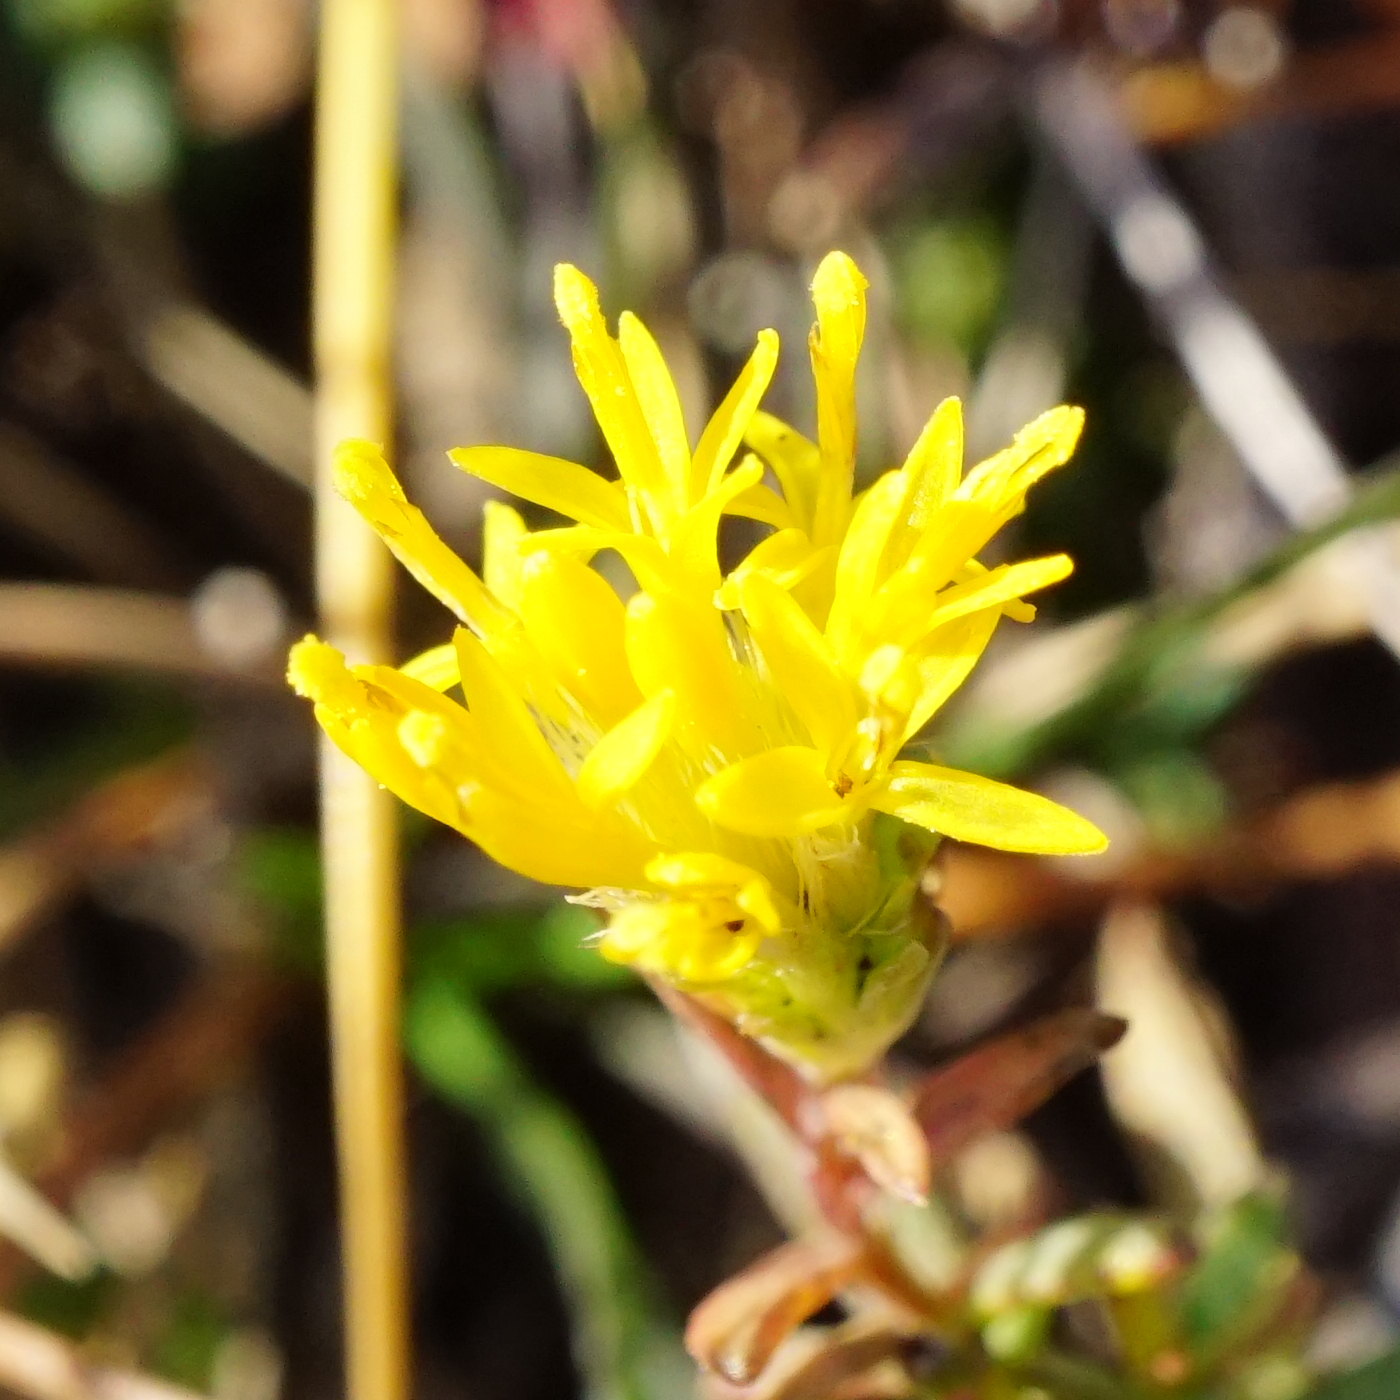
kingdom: Plantae
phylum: Tracheophyta
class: Magnoliopsida
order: Asterales
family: Asteraceae
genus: Galatella
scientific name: Galatella linosyris
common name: Goldilocks aster
